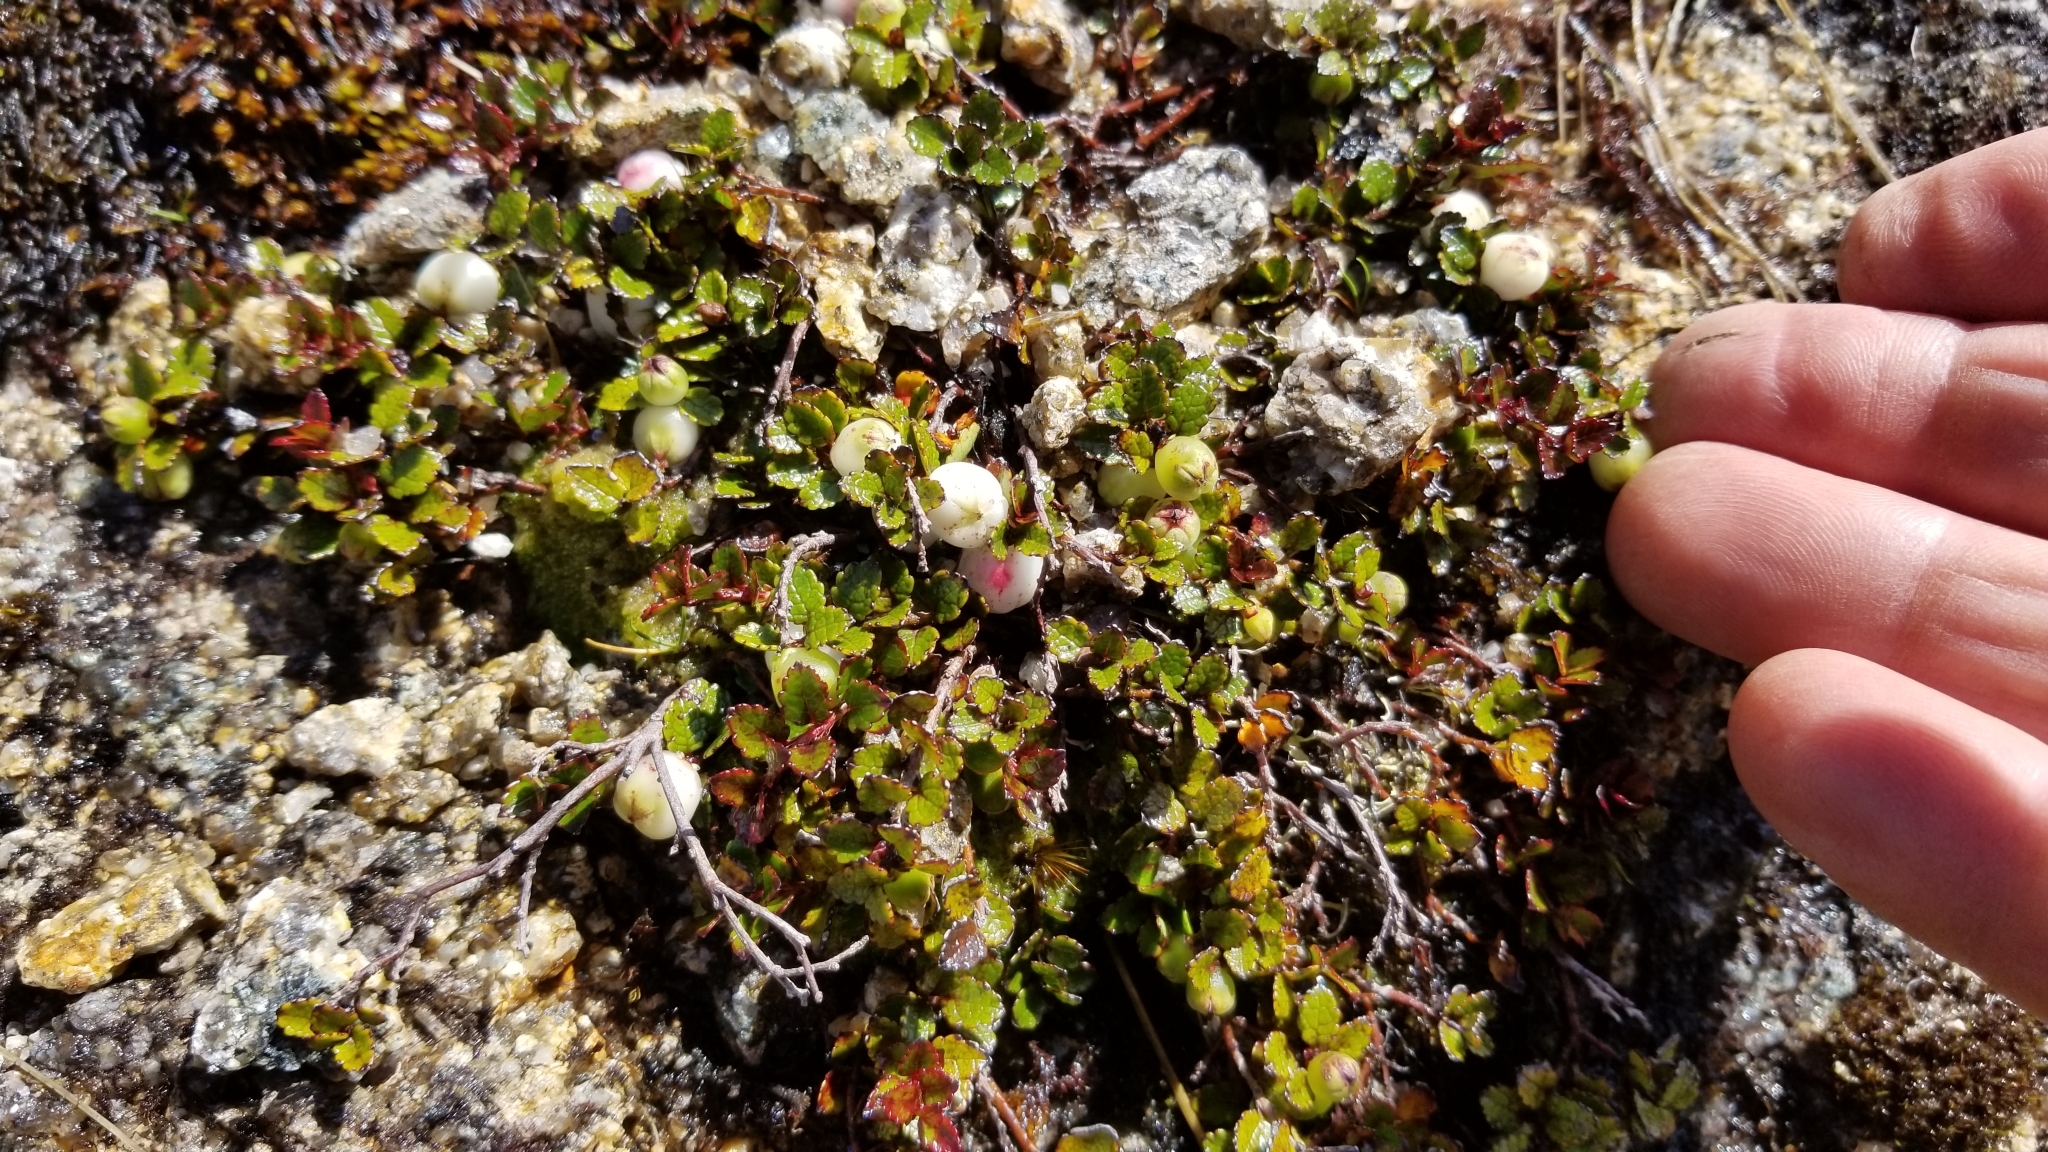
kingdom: Plantae
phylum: Tracheophyta
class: Magnoliopsida
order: Ericales
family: Ericaceae
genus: Gaultheria
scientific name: Gaultheria depressa
